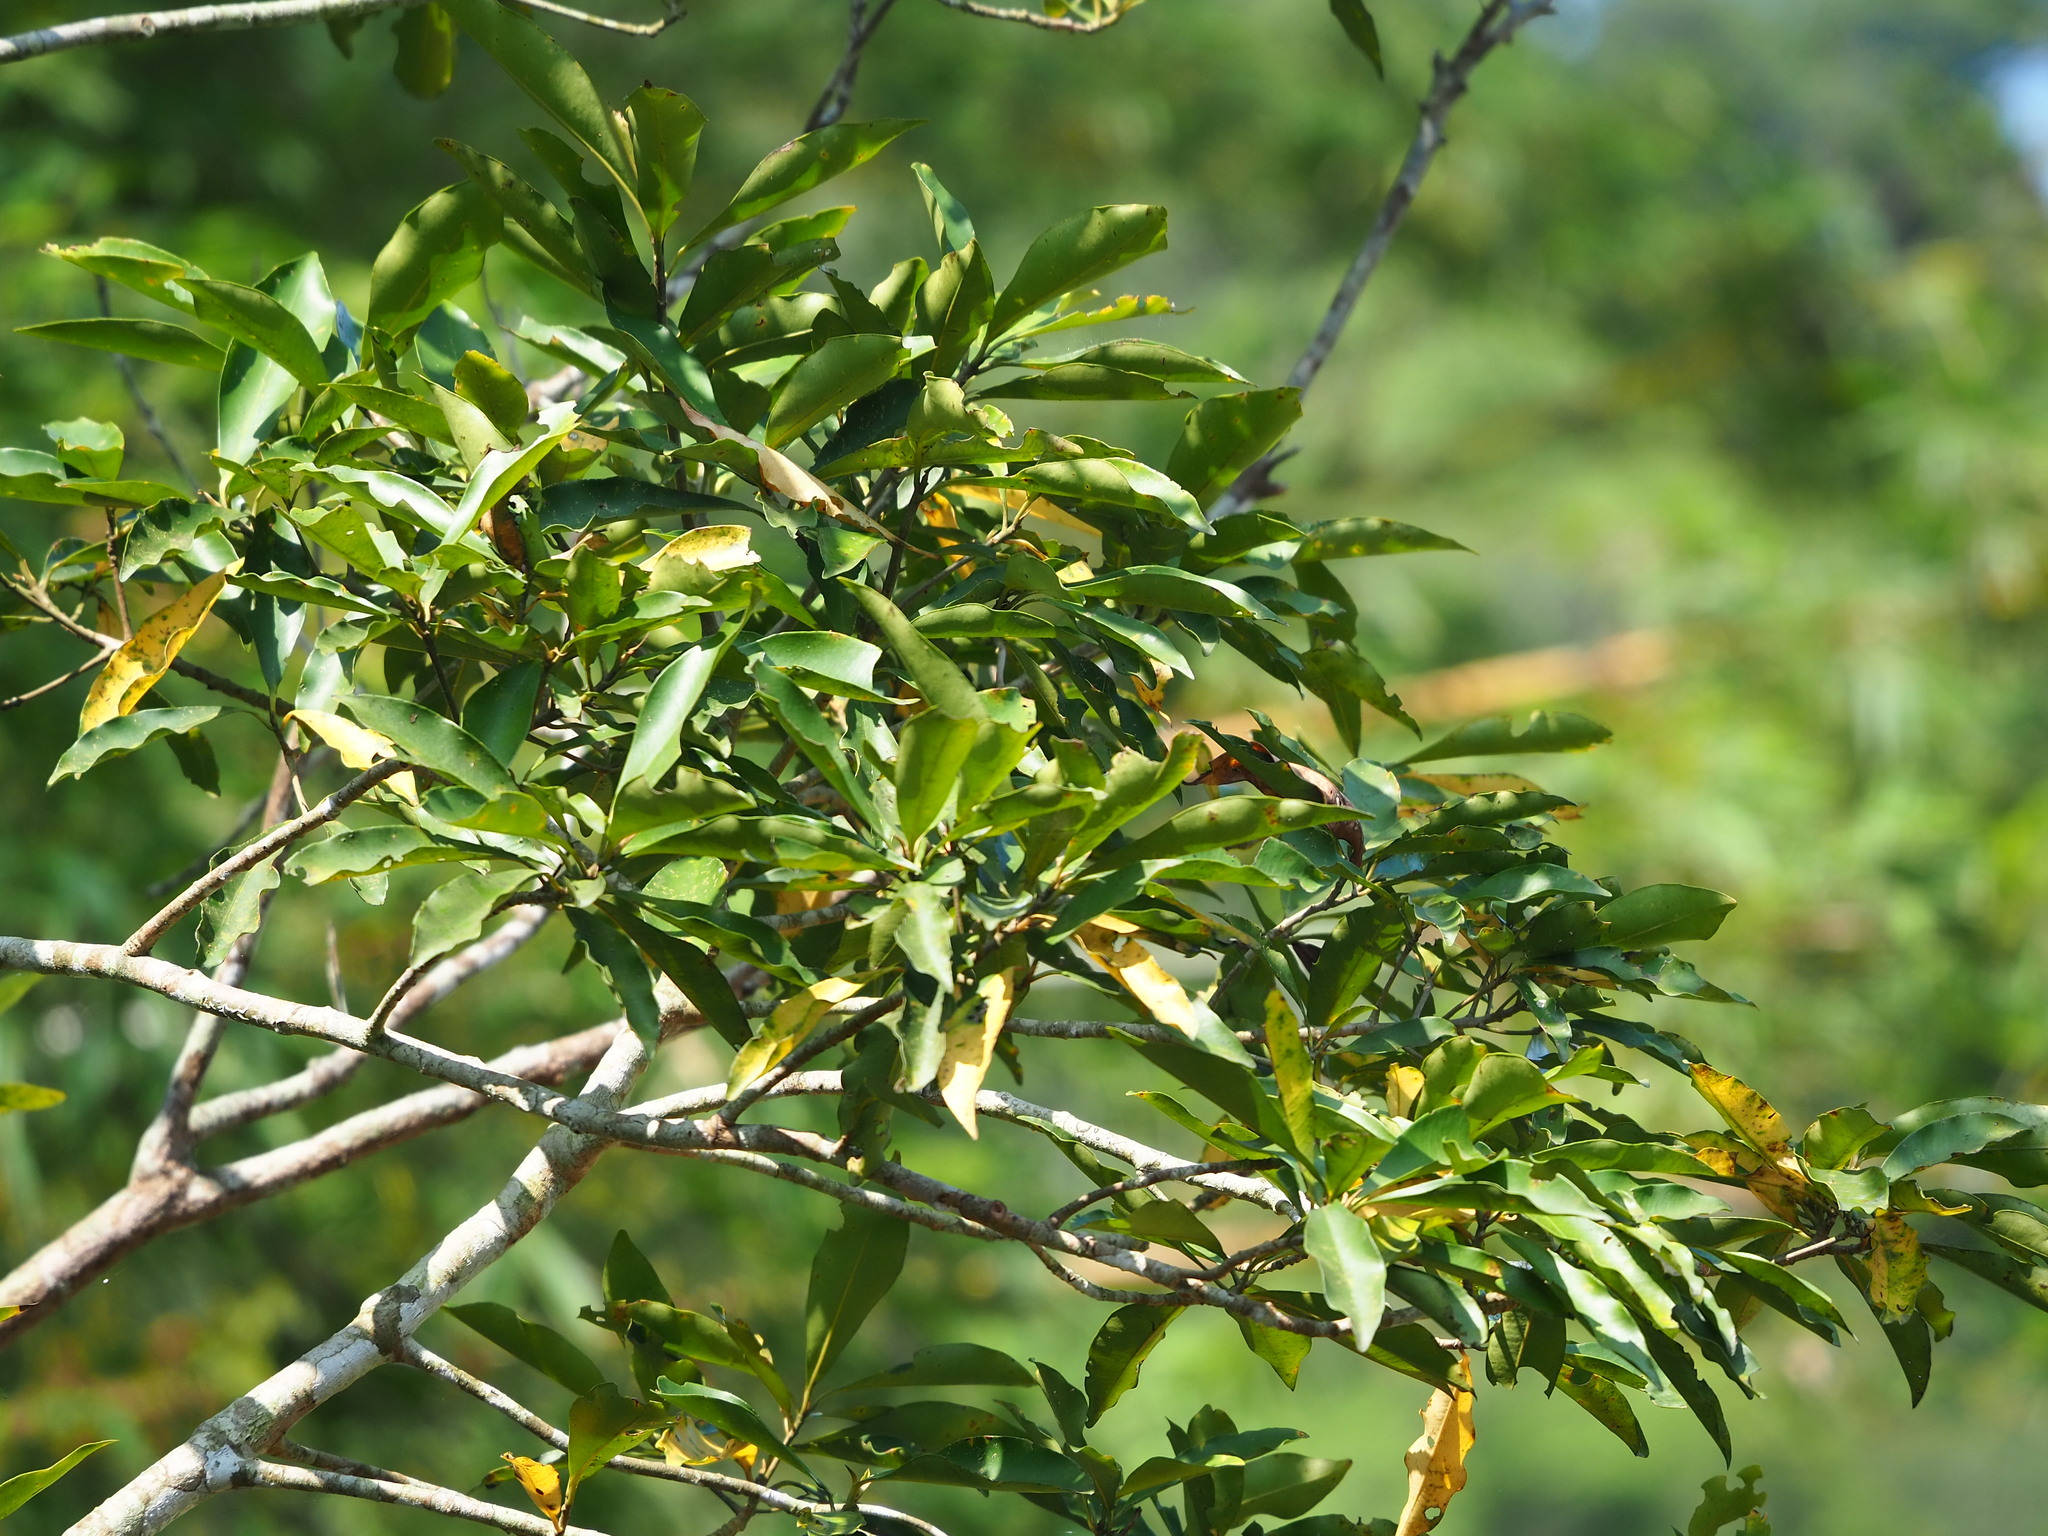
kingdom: Plantae
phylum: Tracheophyta
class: Magnoliopsida
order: Ericales
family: Primulaceae
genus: Ardisia
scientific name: Ardisia sieboldii
